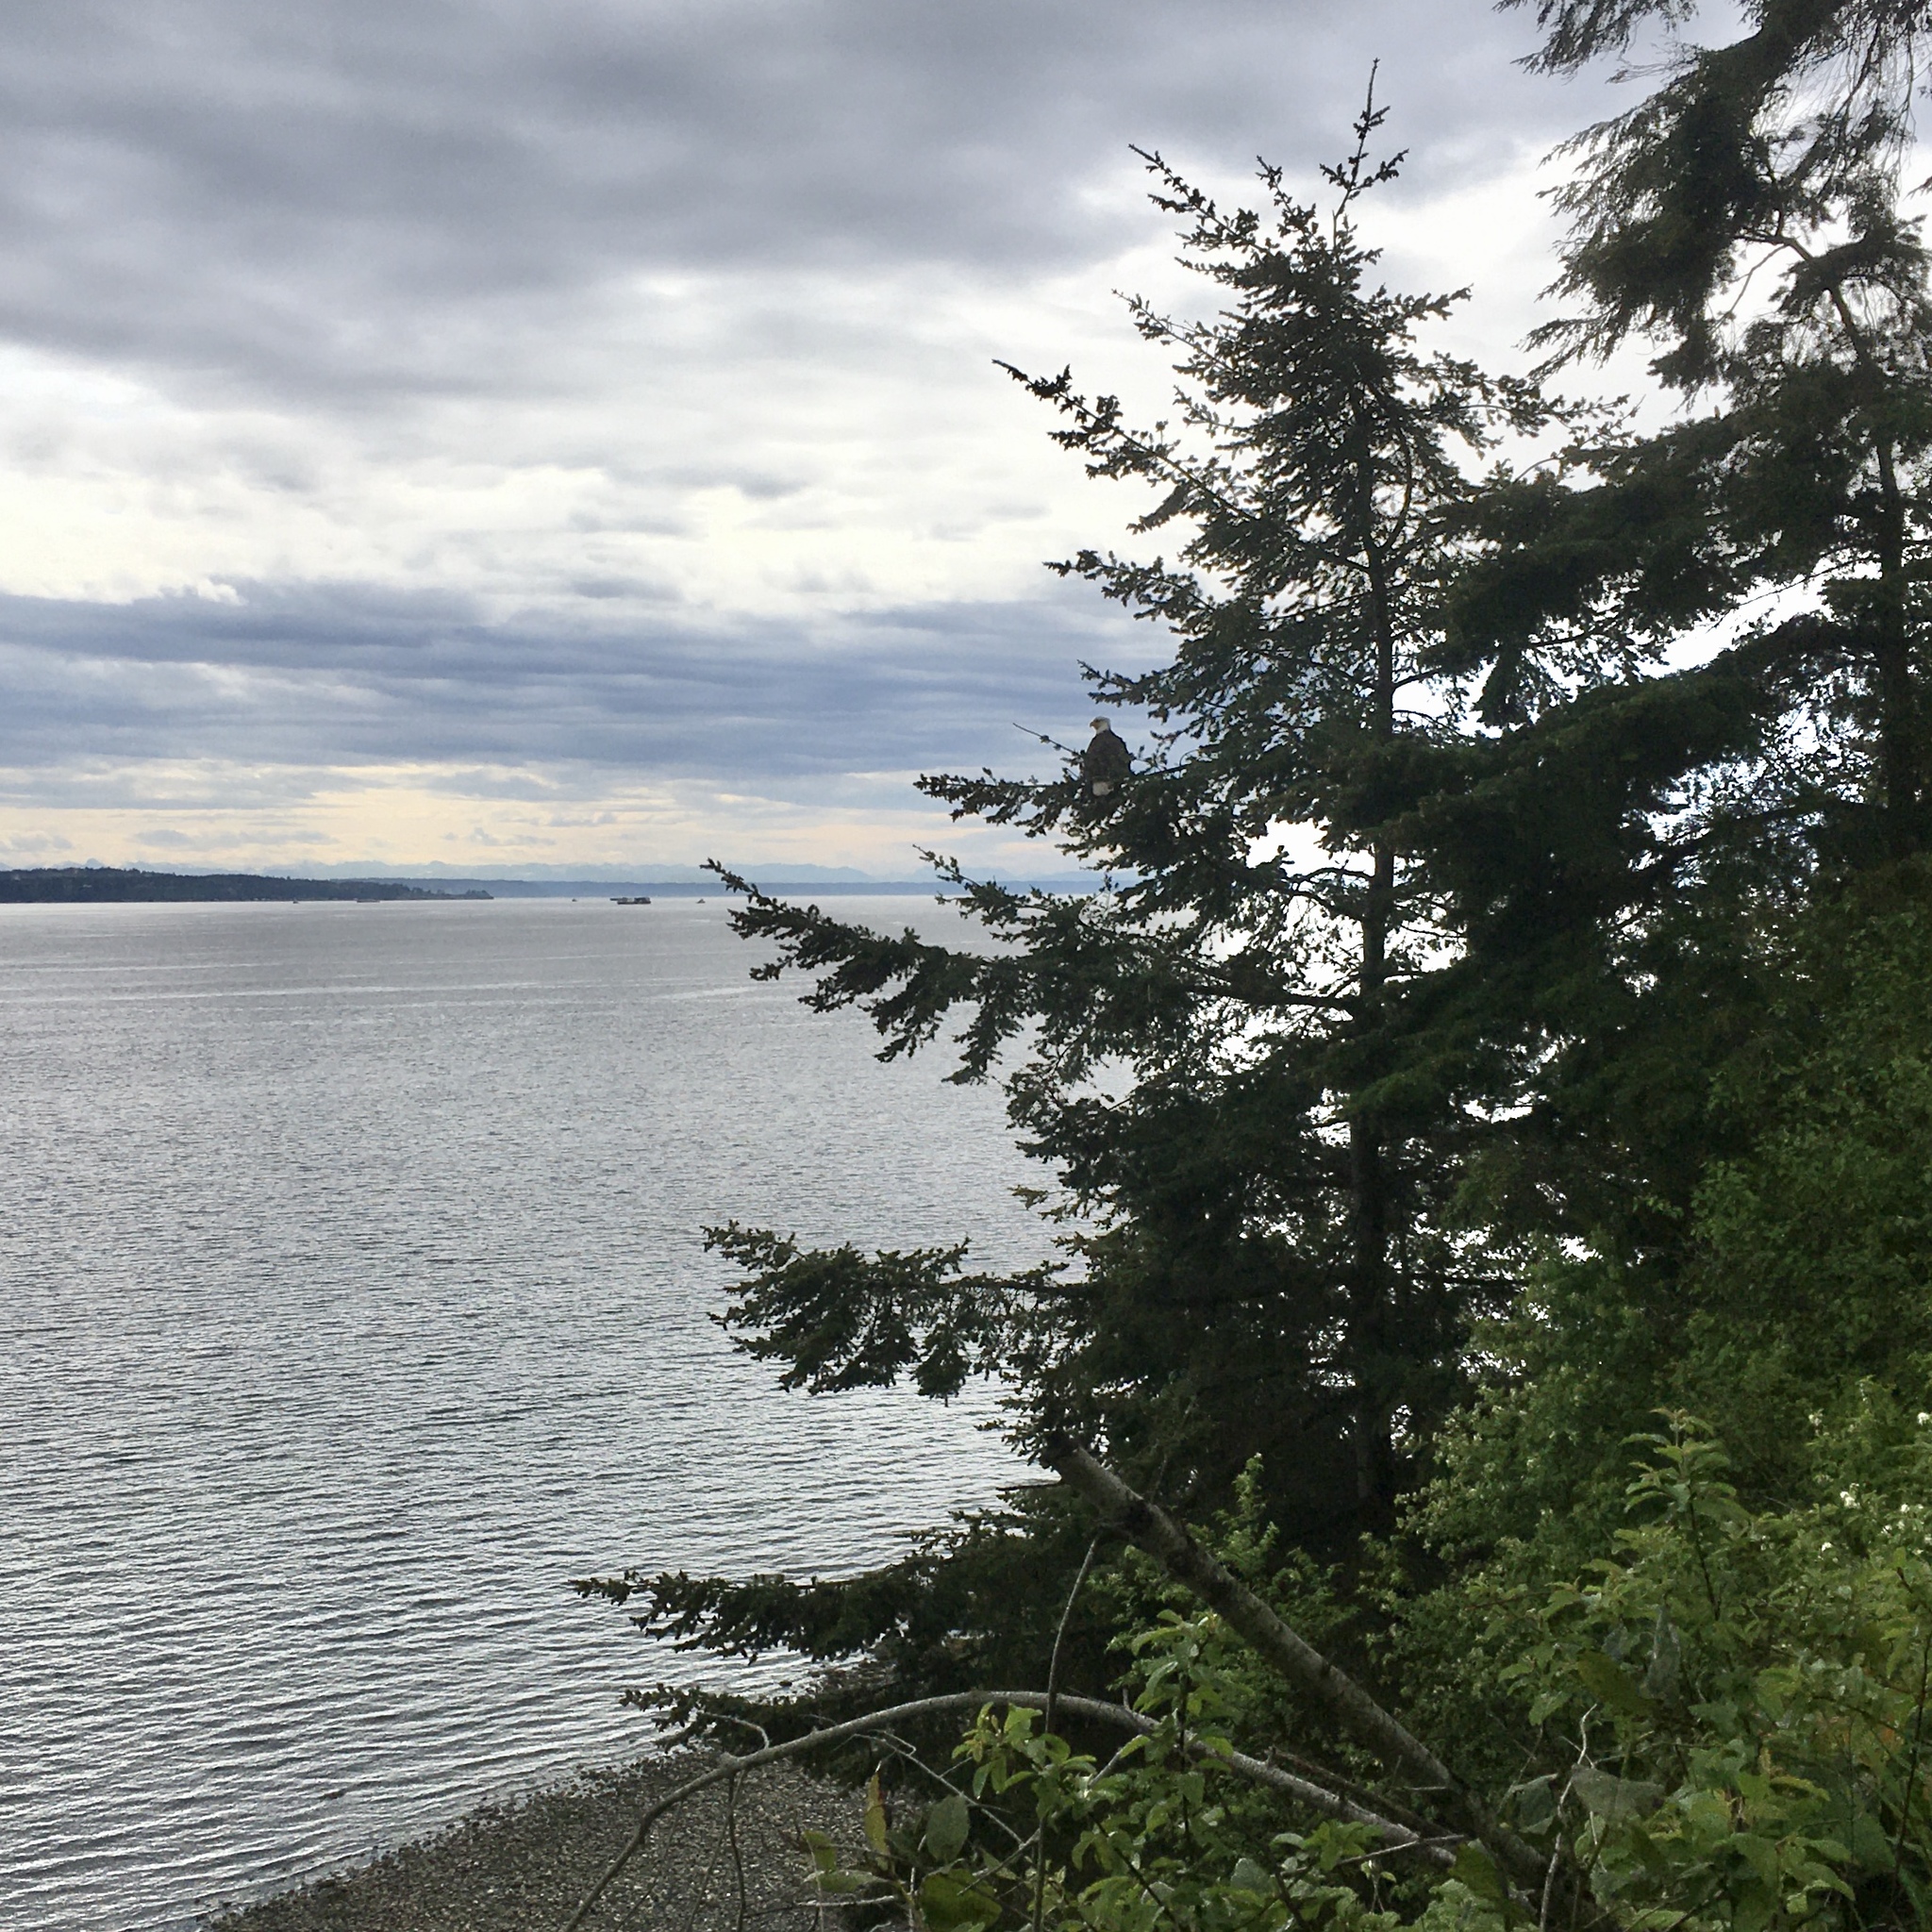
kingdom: Animalia
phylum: Chordata
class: Aves
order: Accipitriformes
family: Accipitridae
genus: Haliaeetus
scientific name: Haliaeetus leucocephalus
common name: Bald eagle
